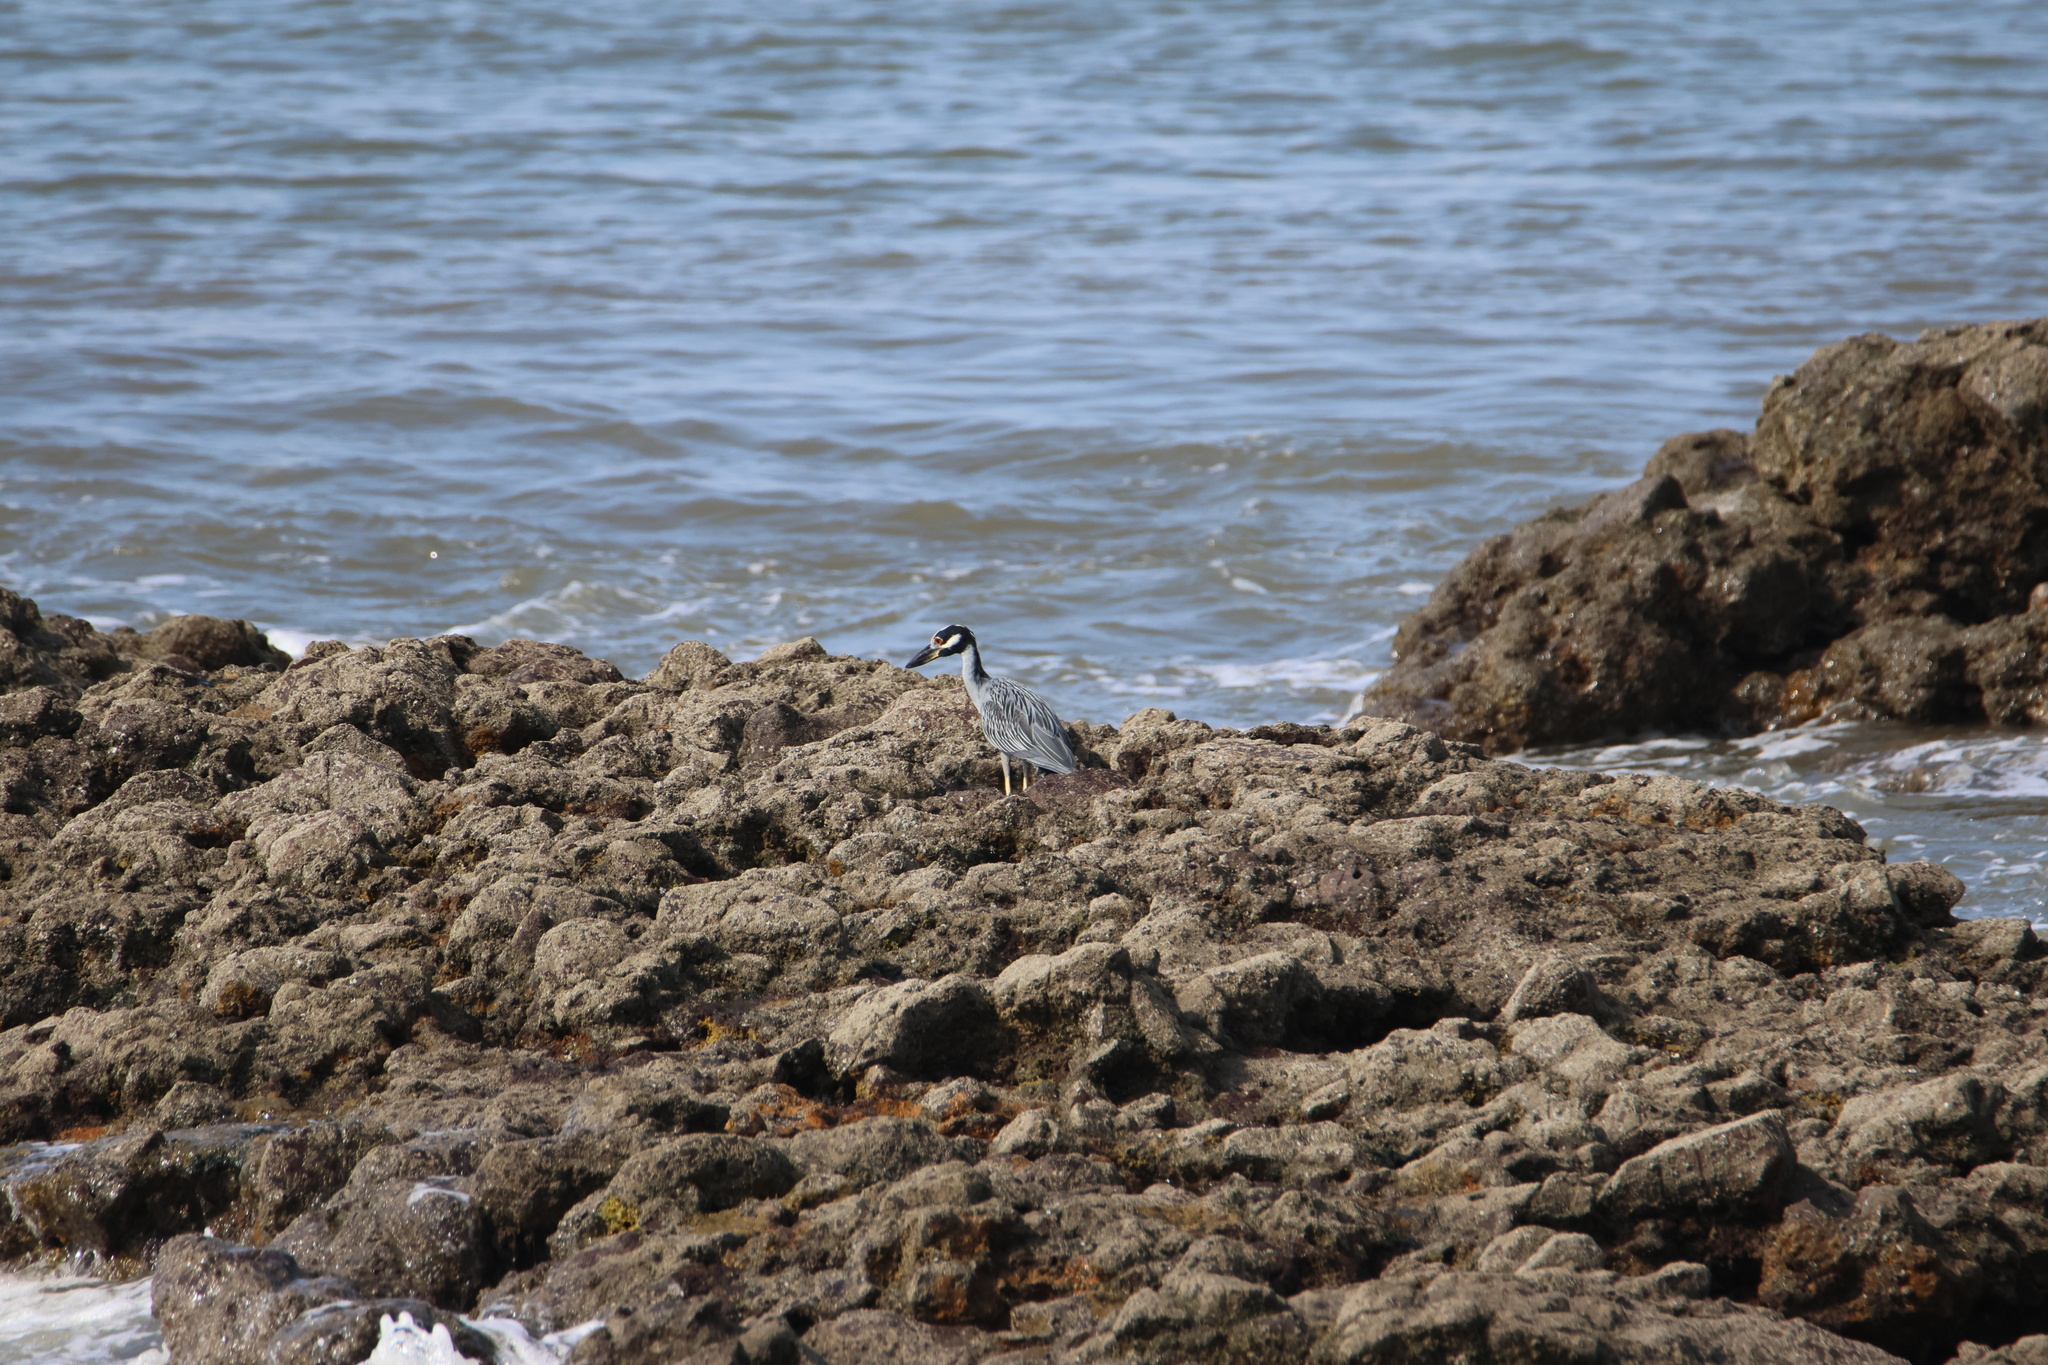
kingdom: Animalia
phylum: Chordata
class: Aves
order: Pelecaniformes
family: Ardeidae
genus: Nyctanassa
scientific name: Nyctanassa violacea
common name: Yellow-crowned night heron
